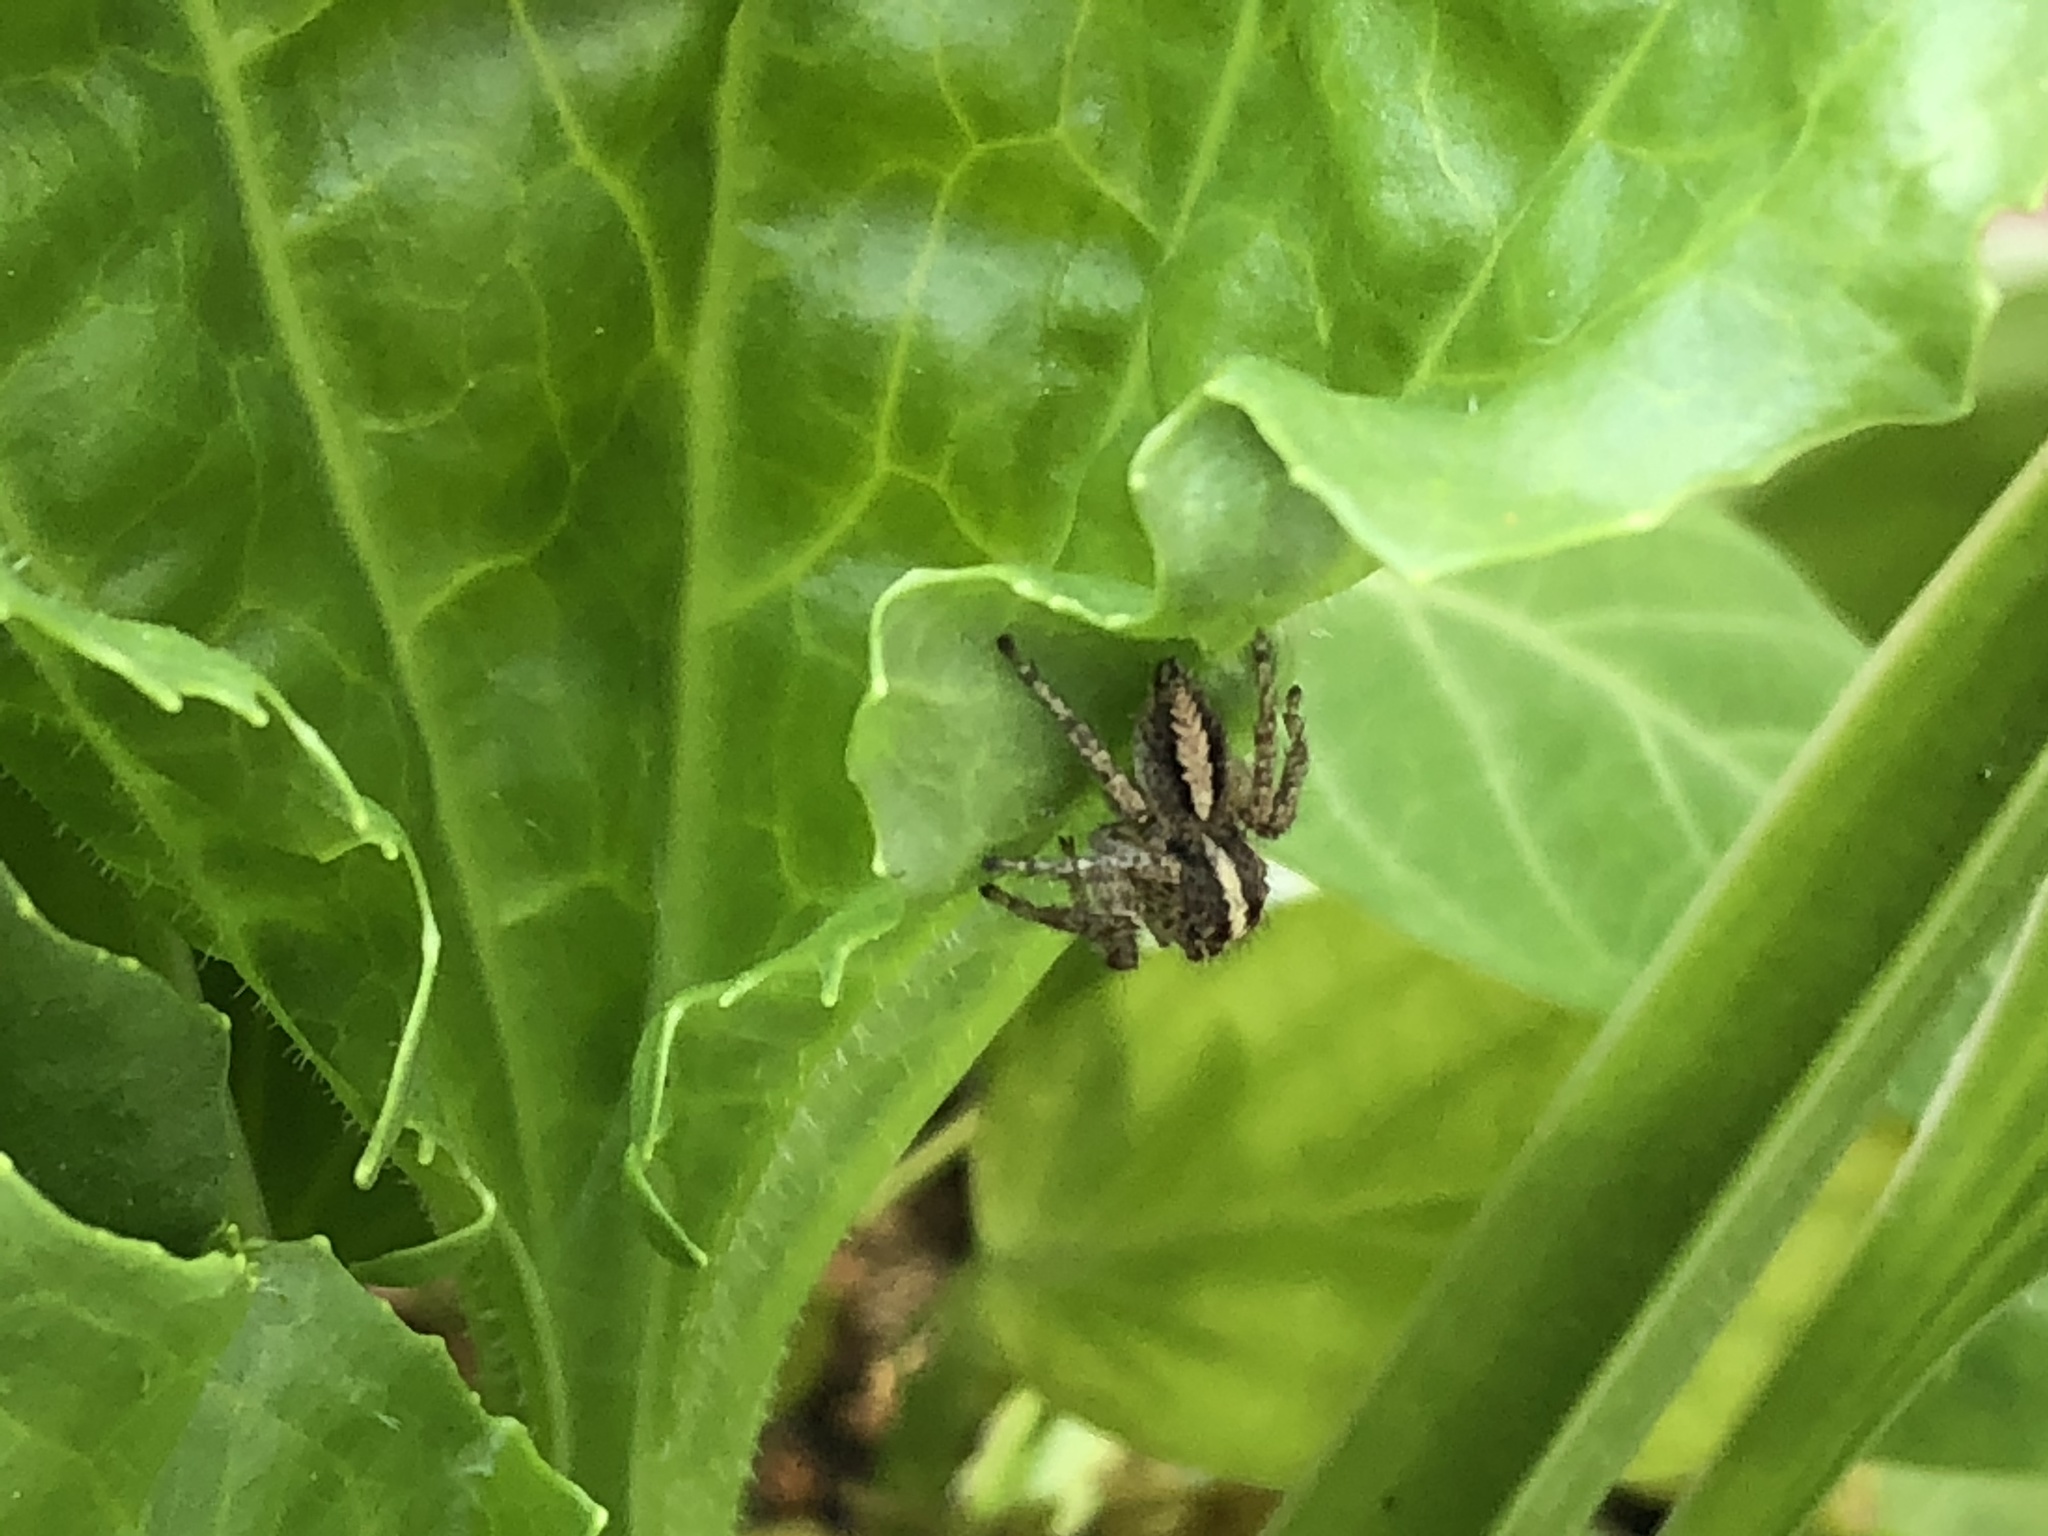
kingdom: Animalia
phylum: Arthropoda
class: Arachnida
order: Araneae
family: Salticidae
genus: Frigga
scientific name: Frigga crocuta
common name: Jumping spiders
